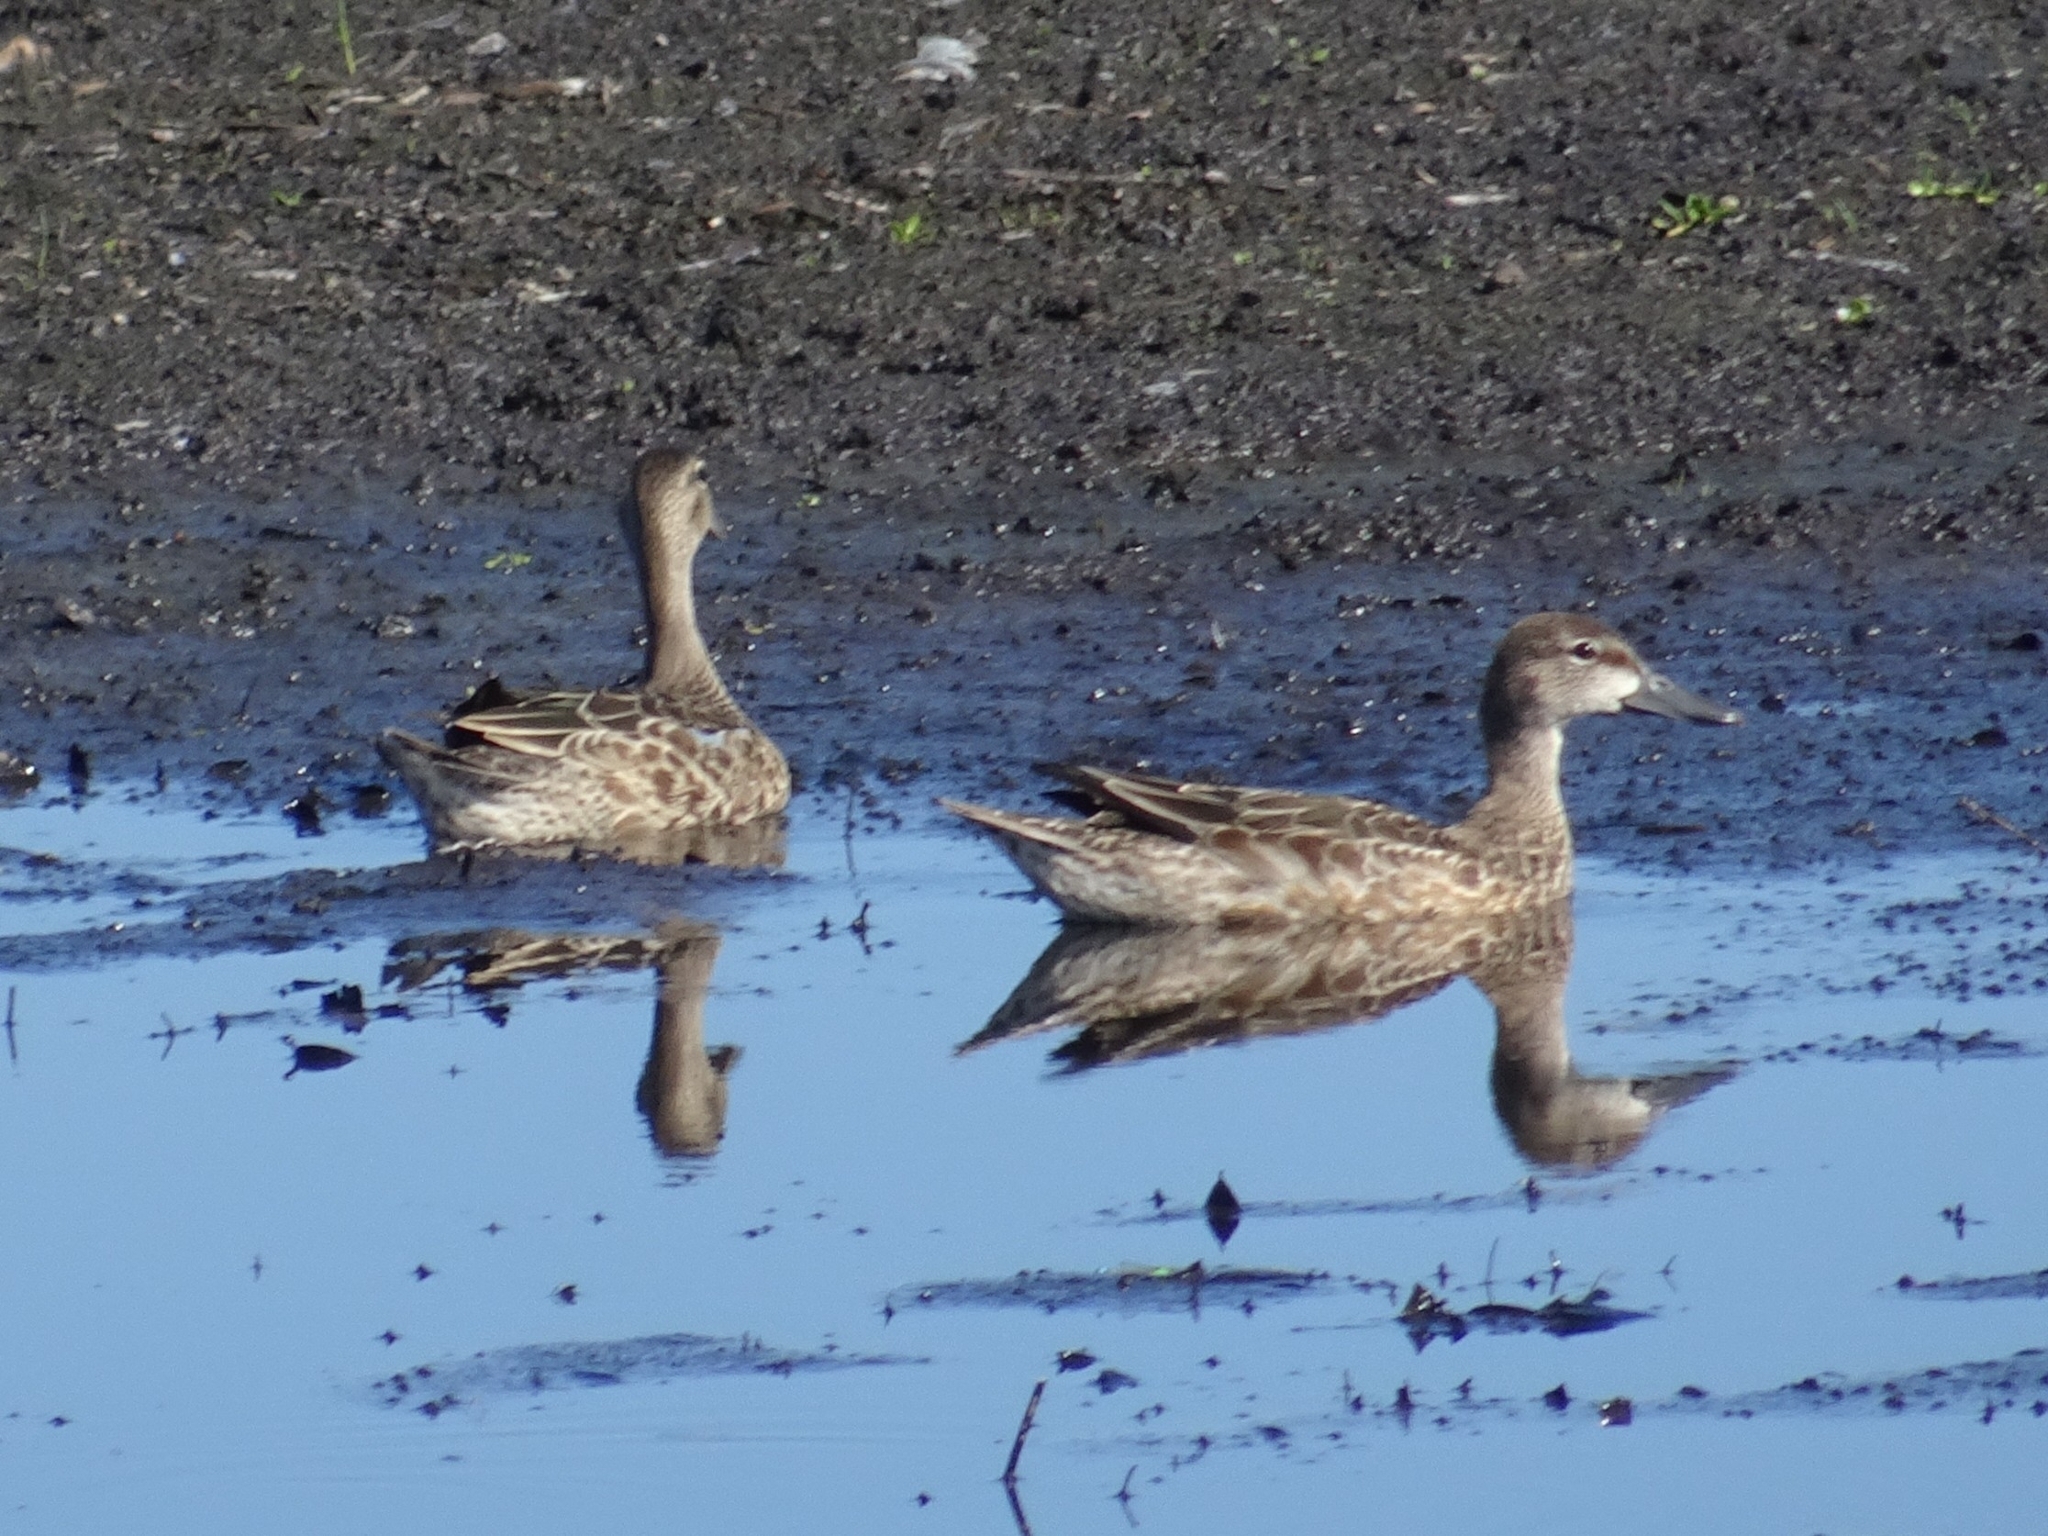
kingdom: Animalia
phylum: Chordata
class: Aves
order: Anseriformes
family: Anatidae
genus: Spatula
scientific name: Spatula discors
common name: Blue-winged teal
